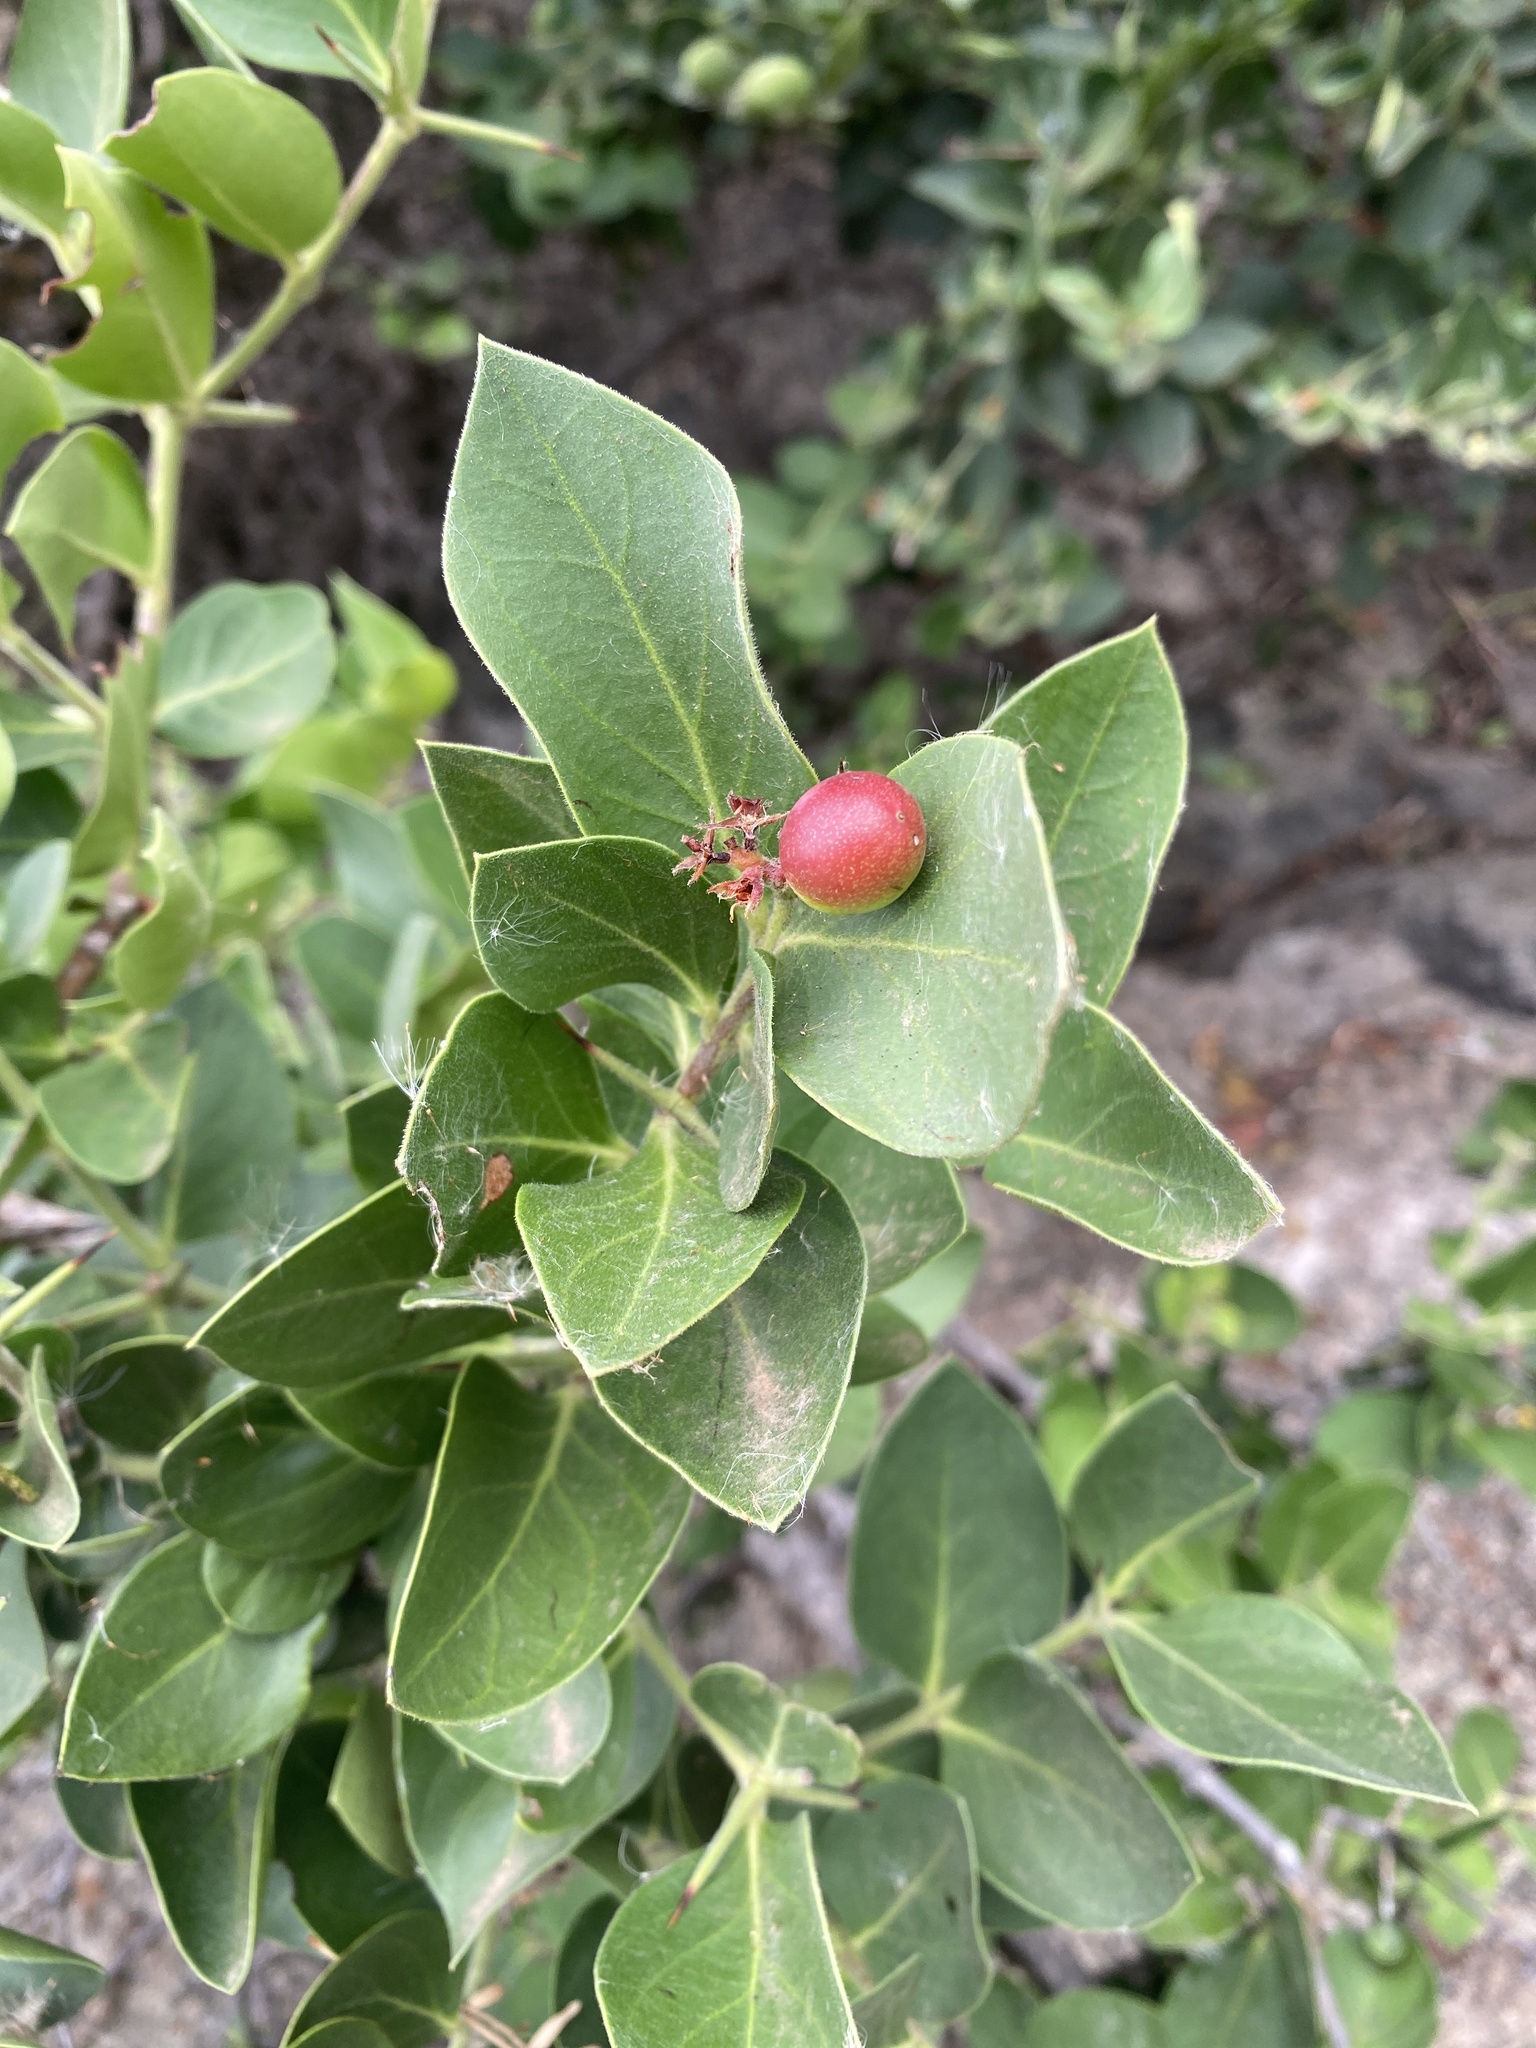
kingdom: Plantae
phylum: Tracheophyta
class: Magnoliopsida
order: Gentianales
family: Apocynaceae
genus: Carissa
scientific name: Carissa spinarum
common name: Egyptian carissa
